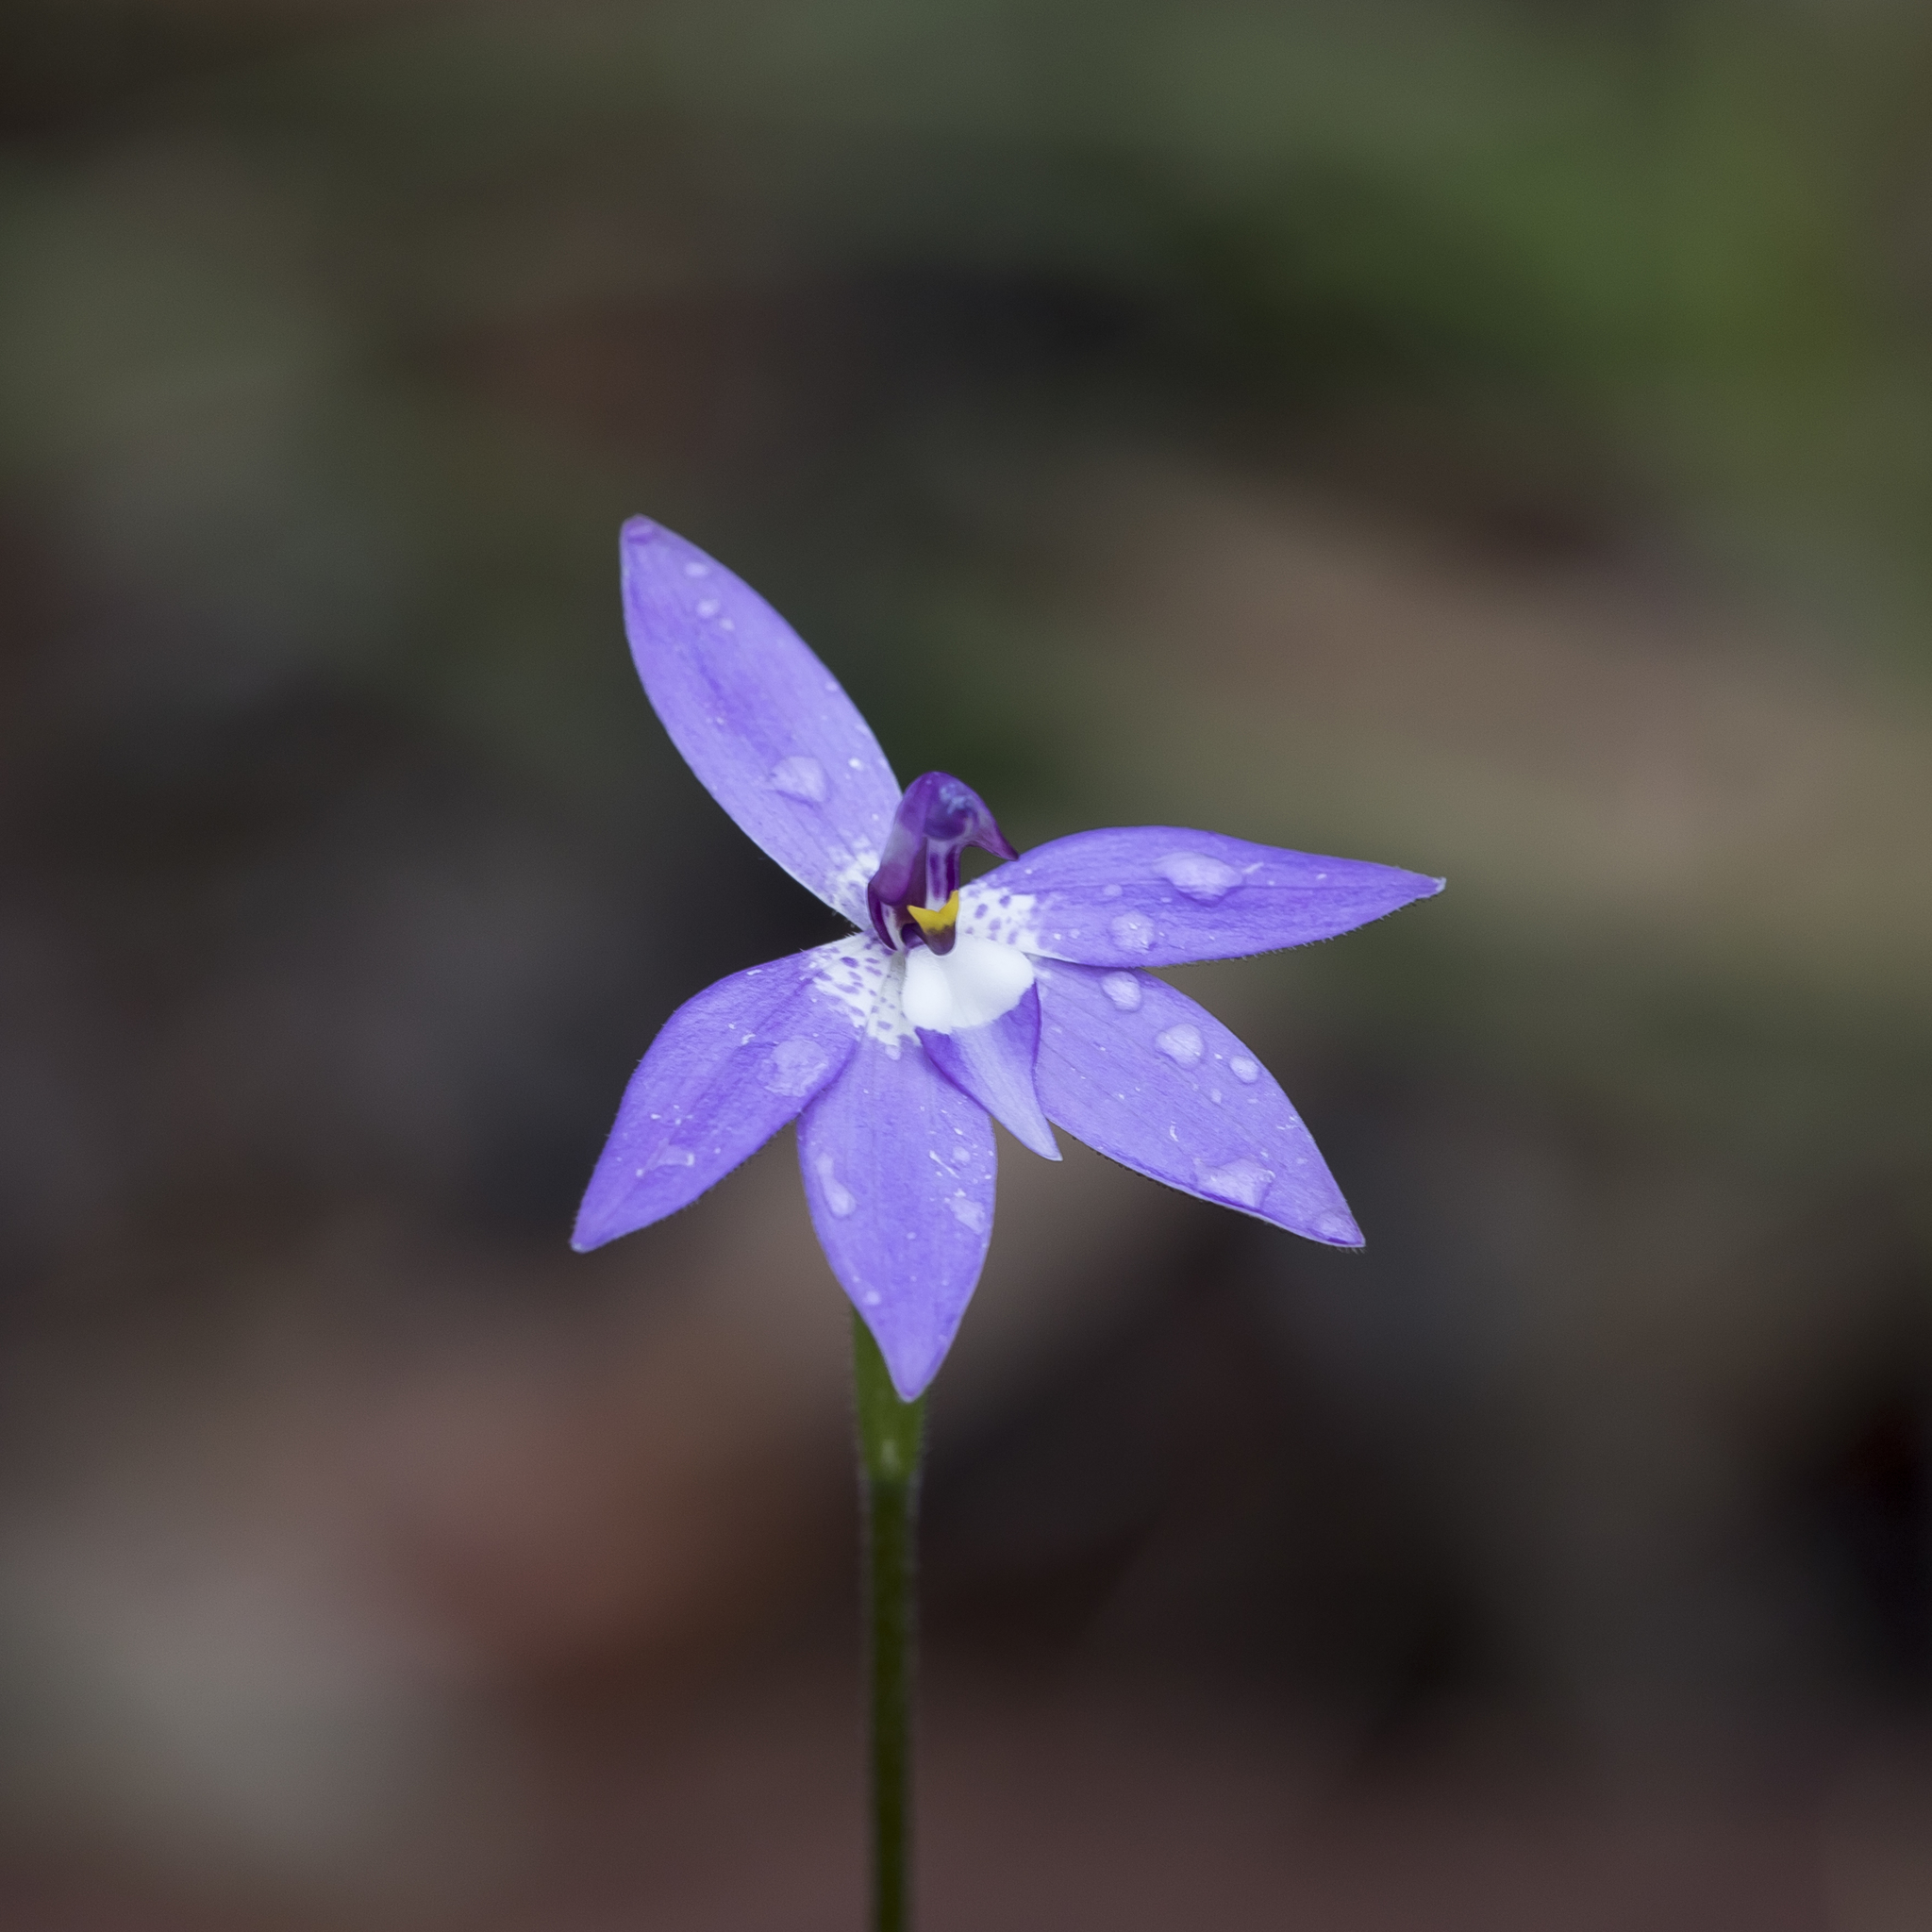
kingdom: Plantae
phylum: Tracheophyta
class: Liliopsida
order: Asparagales
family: Orchidaceae
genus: Caladenia
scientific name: Caladenia major
